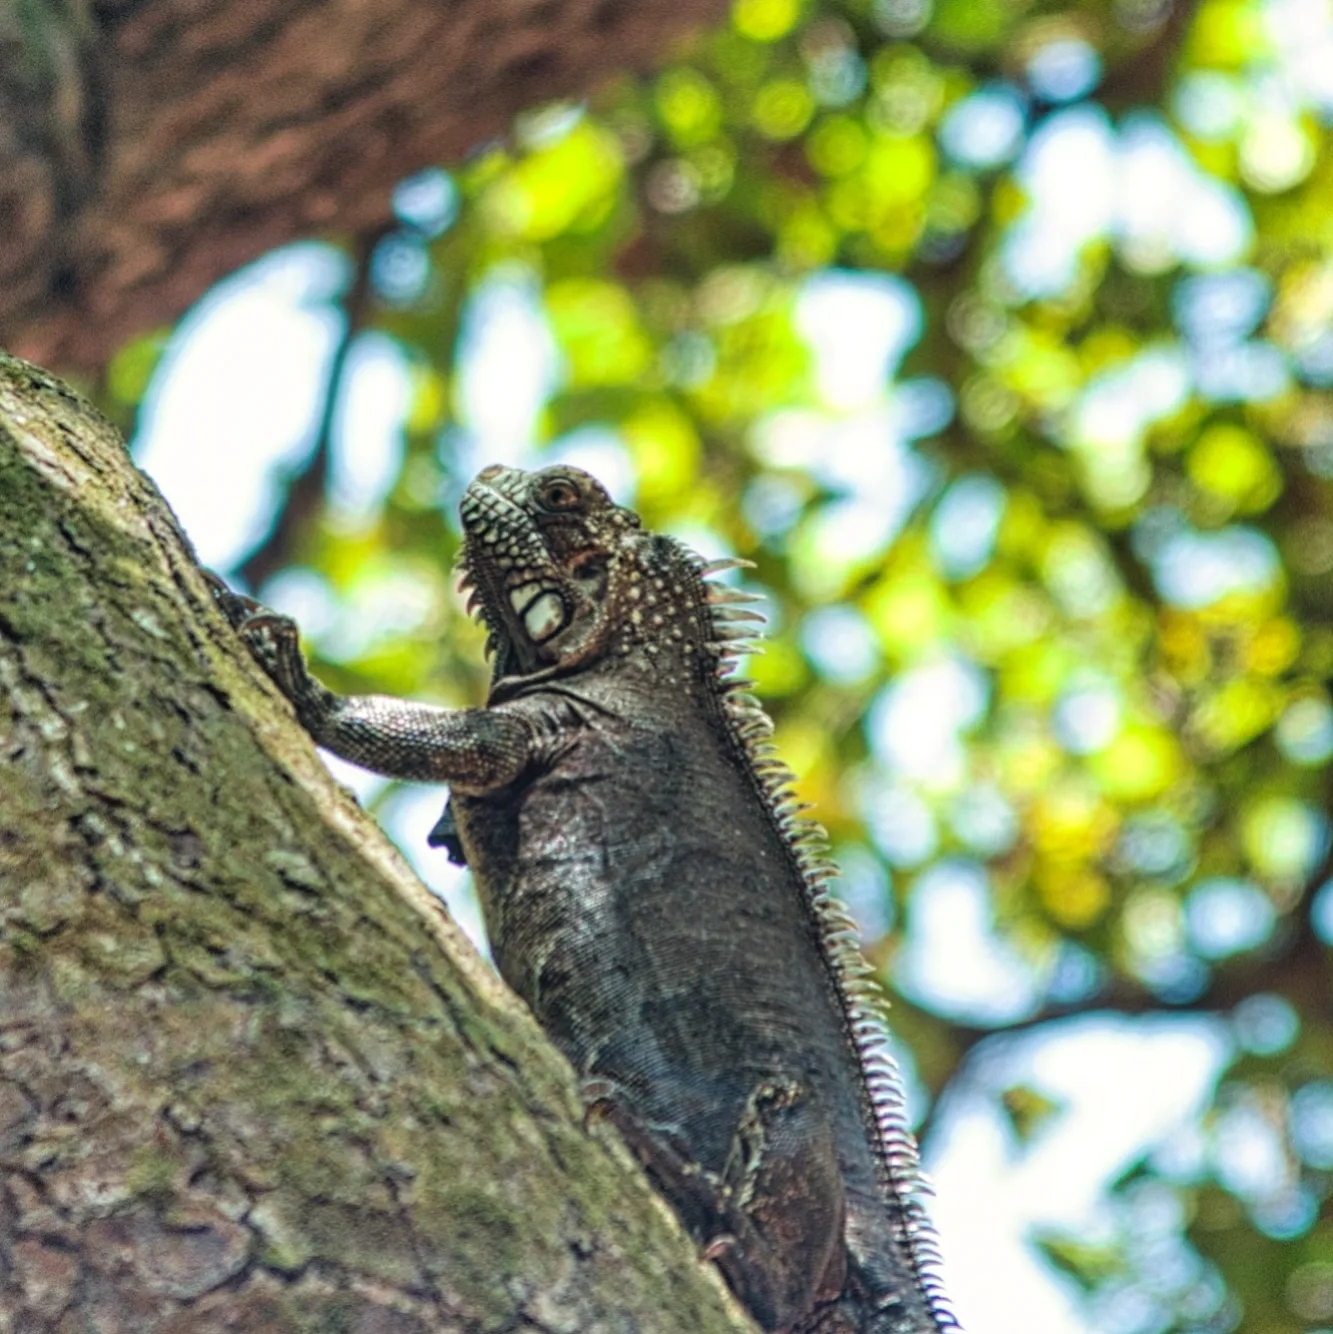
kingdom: Animalia
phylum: Chordata
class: Squamata
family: Iguanidae
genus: Iguana
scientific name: Iguana iguana
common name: Green iguana
